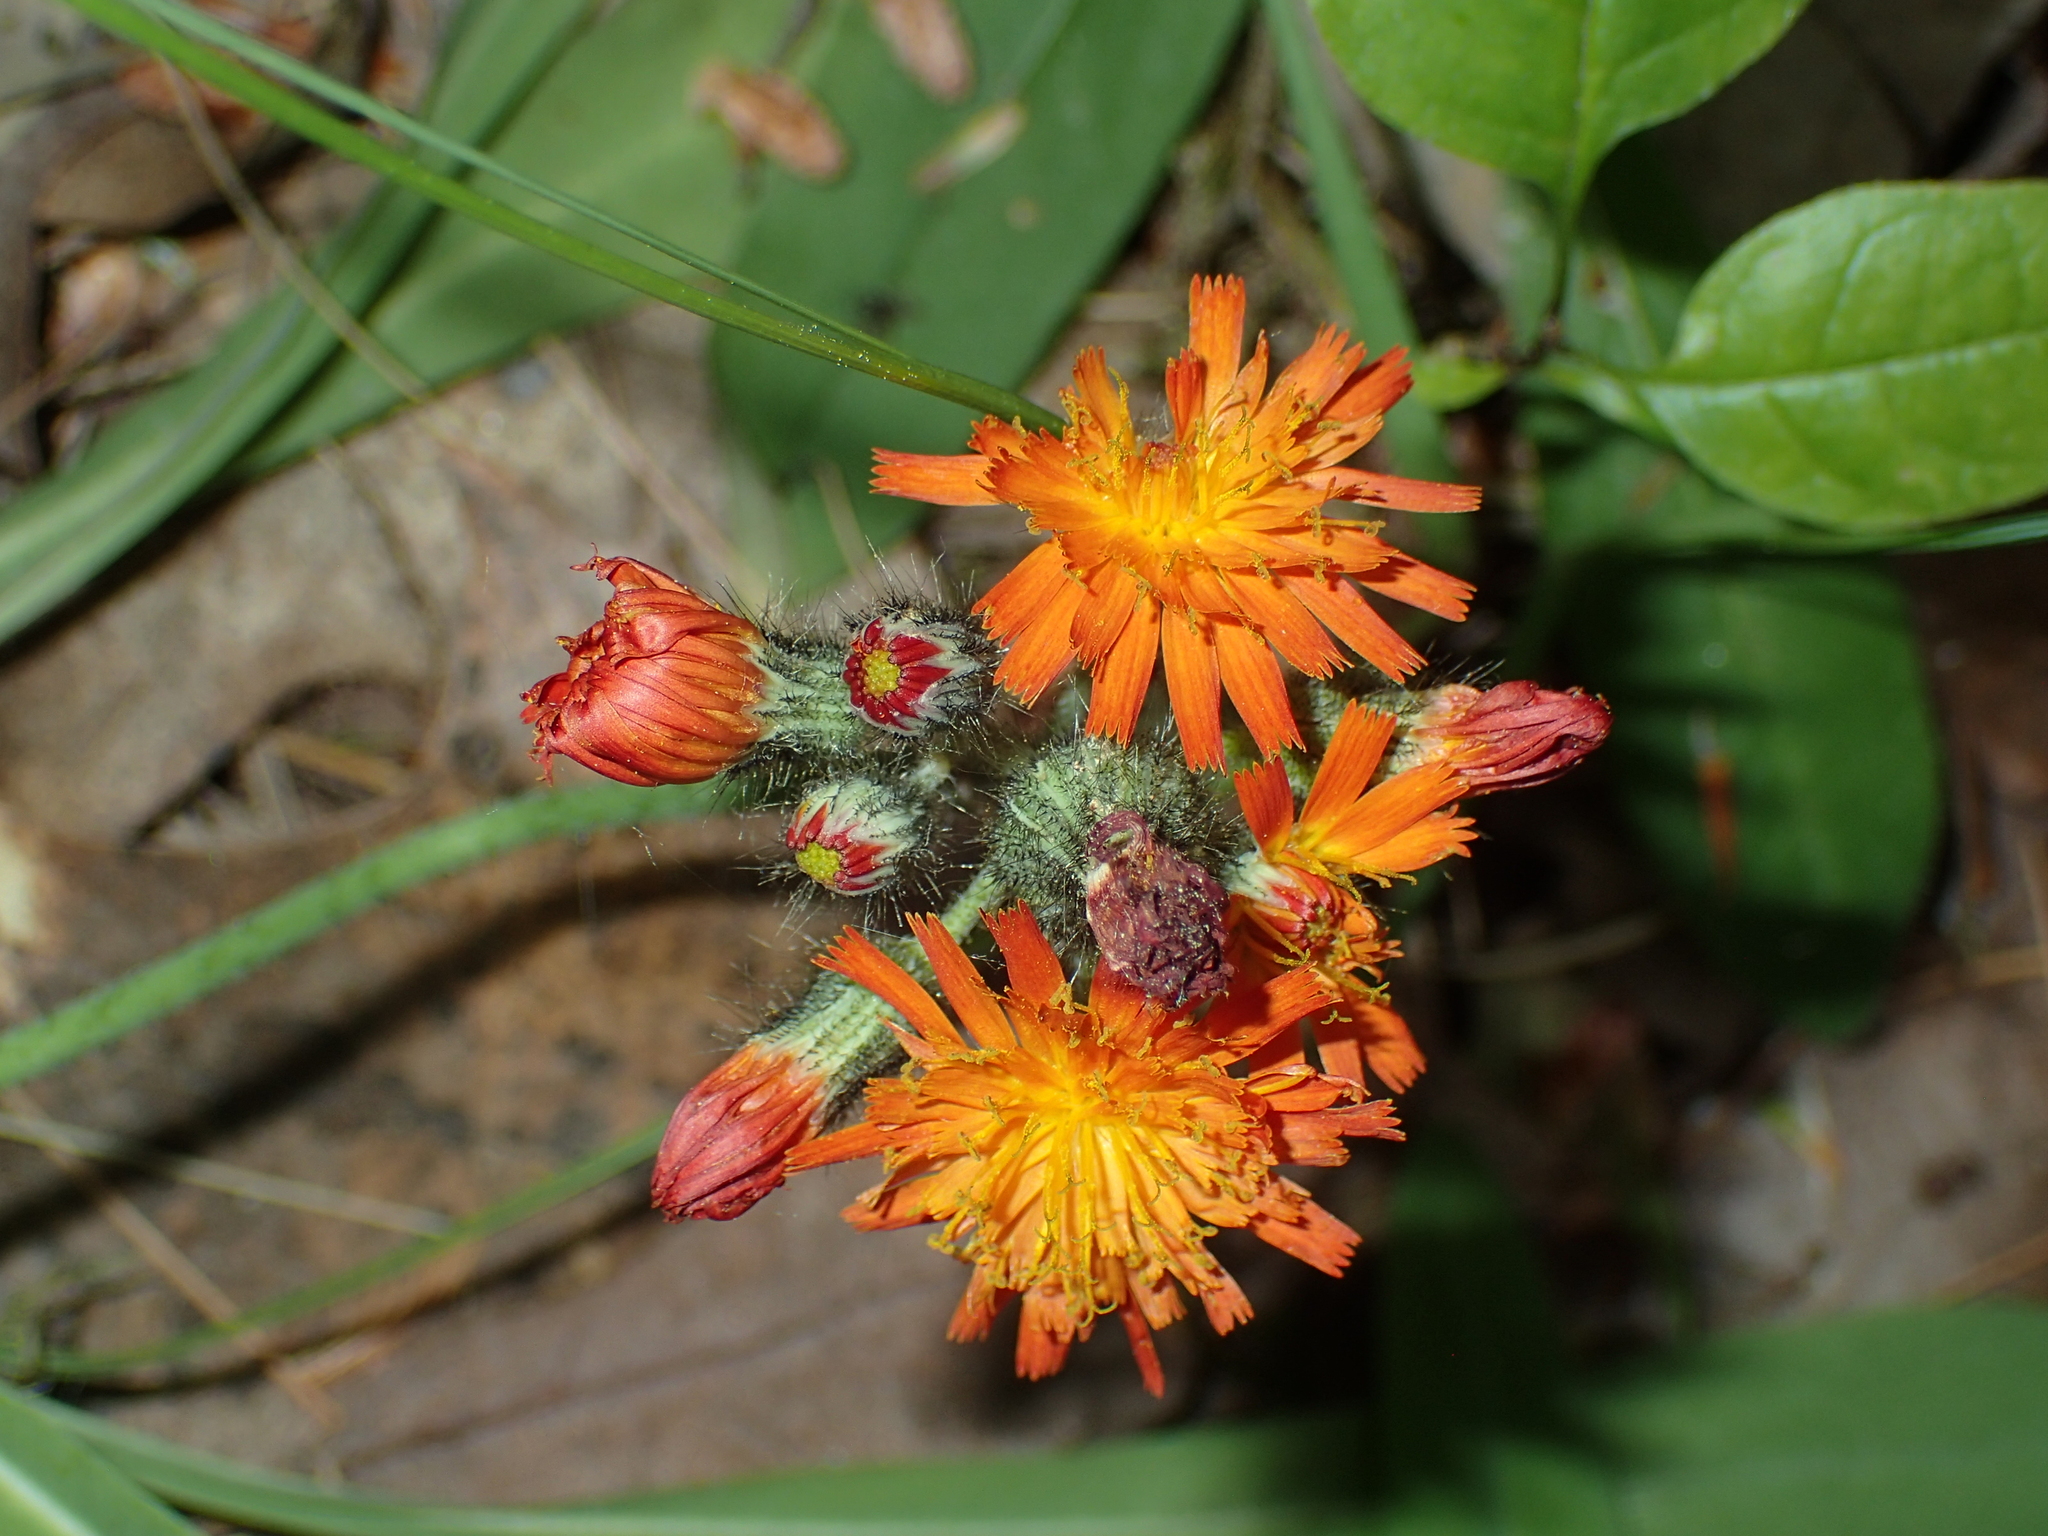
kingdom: Plantae
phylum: Tracheophyta
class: Magnoliopsida
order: Asterales
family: Asteraceae
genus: Pilosella
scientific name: Pilosella aurantiaca
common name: Fox-and-cubs
